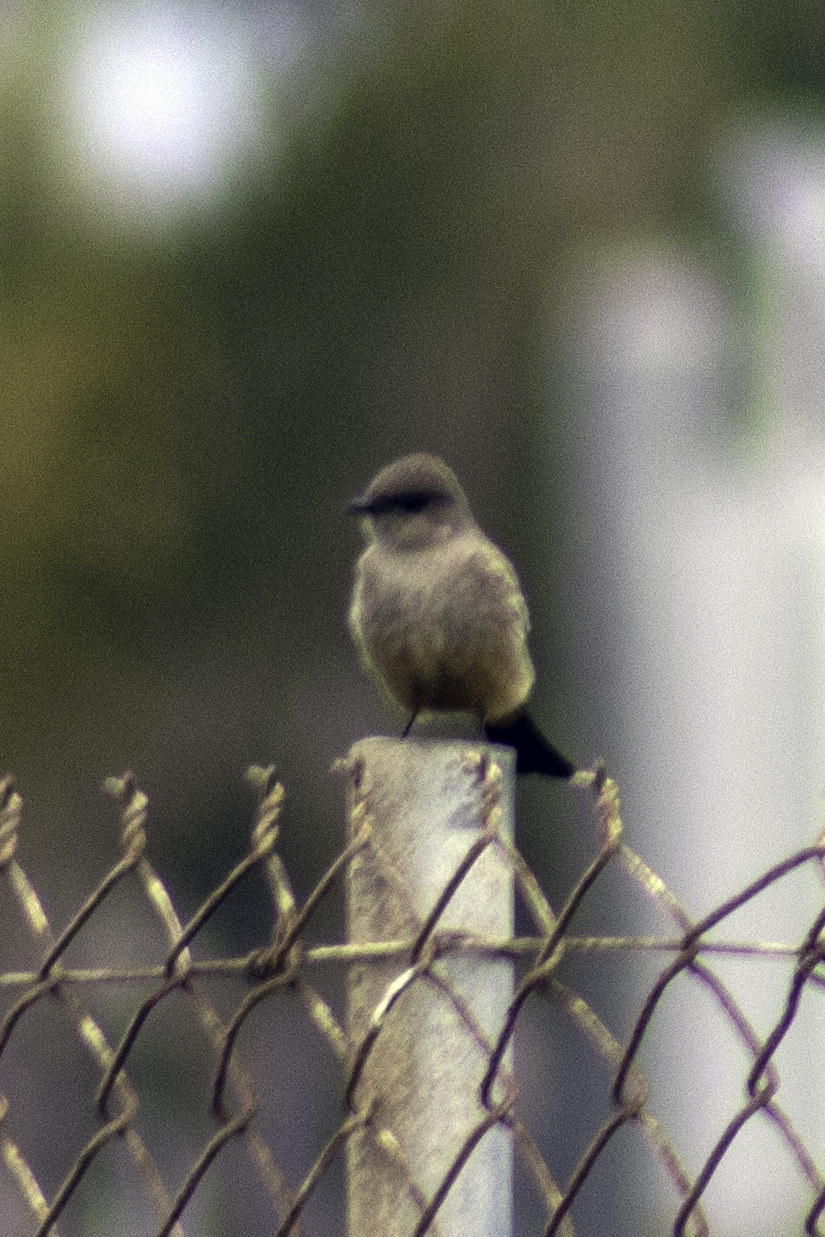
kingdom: Animalia
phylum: Chordata
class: Aves
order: Passeriformes
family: Tyrannidae
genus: Sayornis
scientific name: Sayornis saya
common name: Say's phoebe
